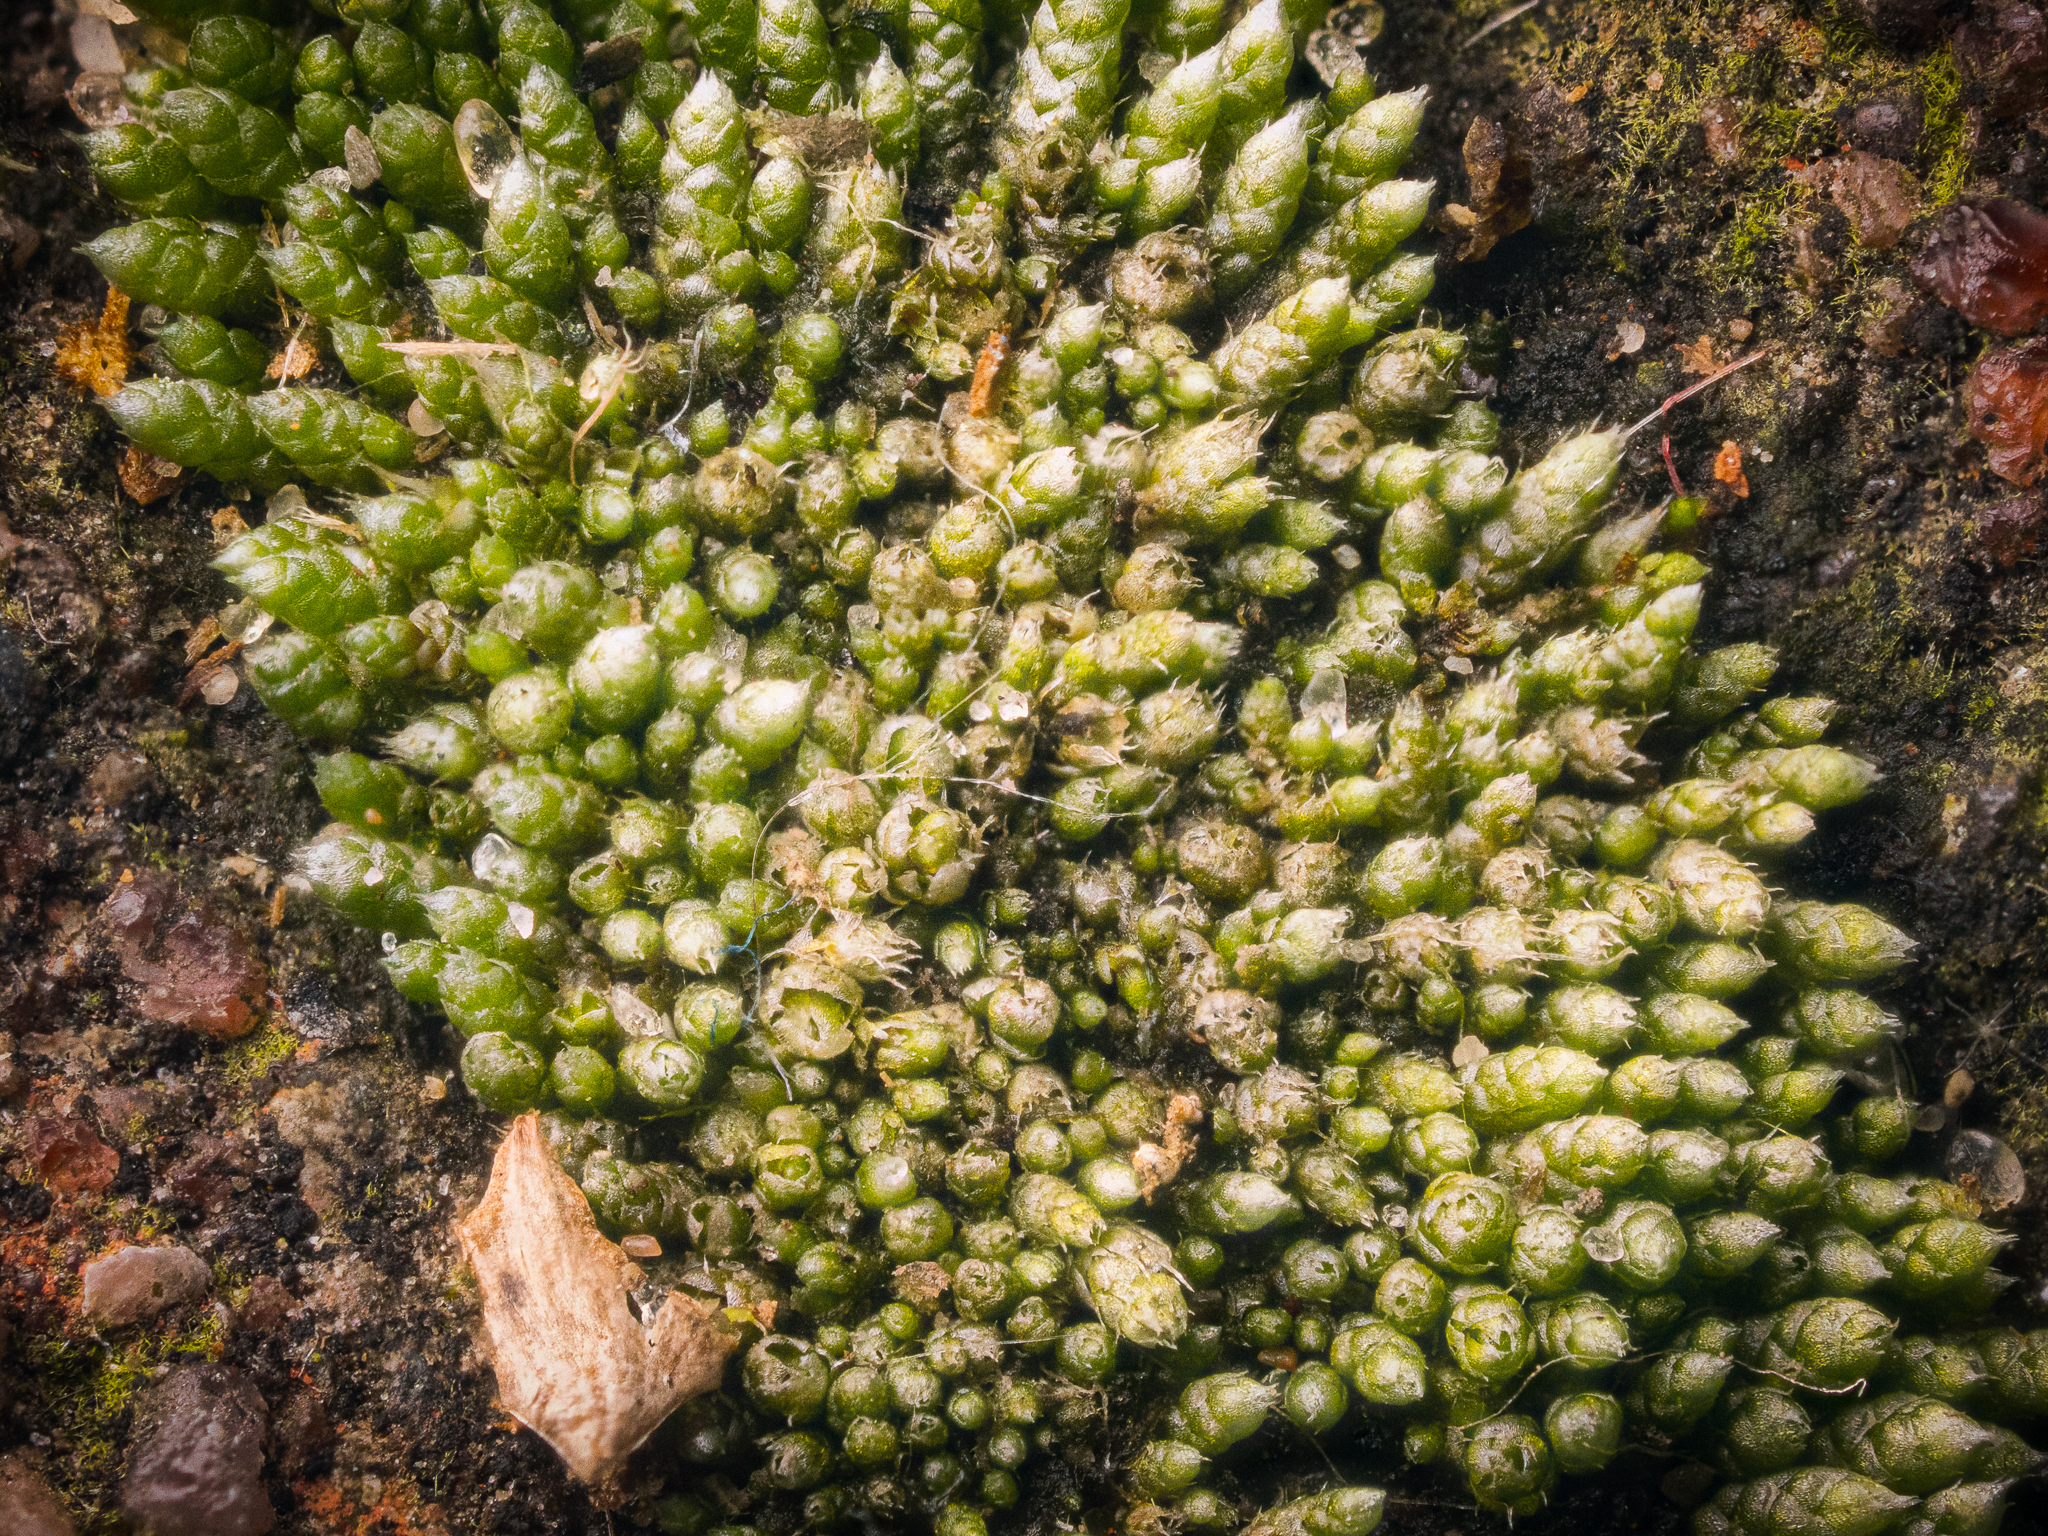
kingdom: Plantae
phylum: Bryophyta
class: Bryopsida
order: Bryales
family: Bryaceae
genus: Bryum
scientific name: Bryum argenteum
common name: Silver-moss
